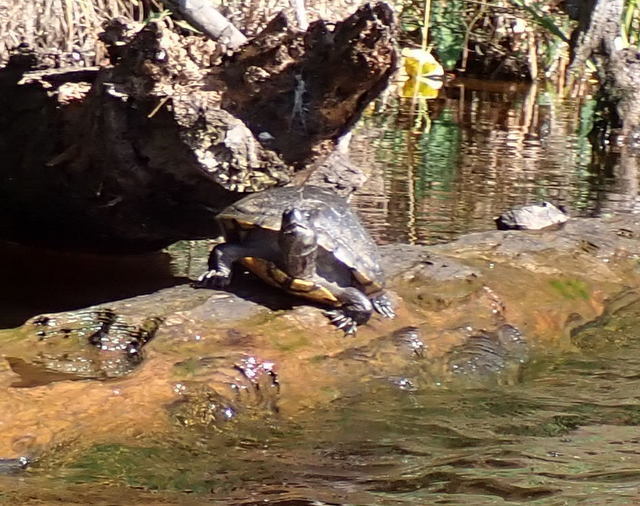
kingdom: Animalia
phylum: Chordata
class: Testudines
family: Emydidae
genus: Trachemys
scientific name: Trachemys scripta
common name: Slider
